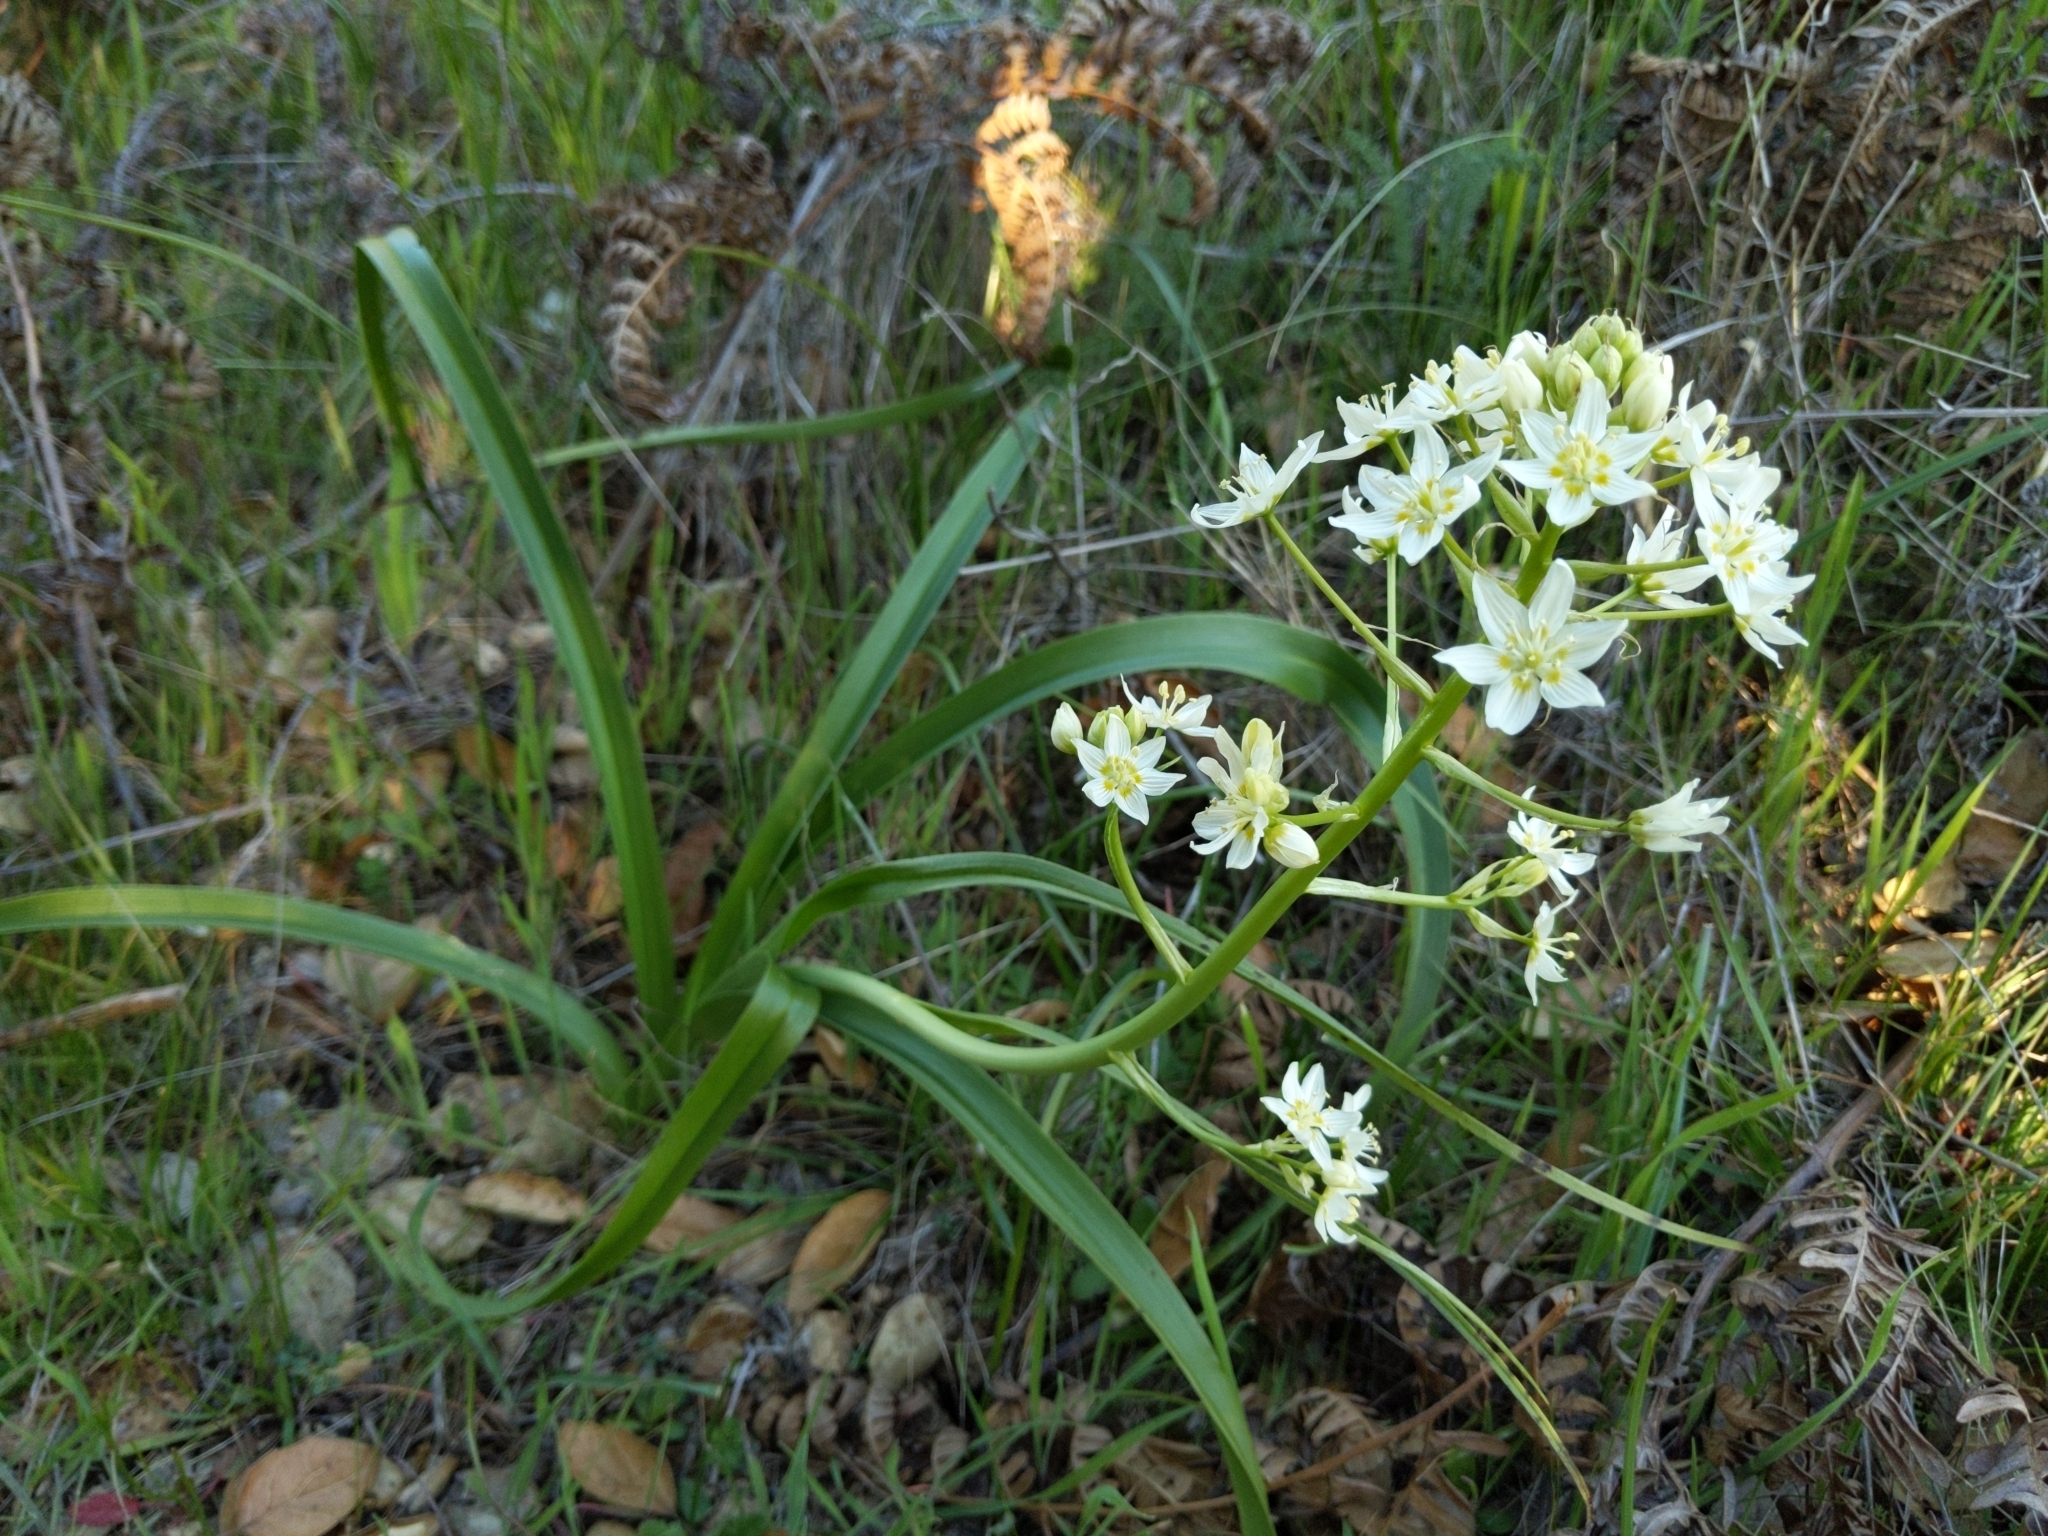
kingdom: Plantae
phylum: Tracheophyta
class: Liliopsida
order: Liliales
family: Melanthiaceae
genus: Toxicoscordion
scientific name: Toxicoscordion fremontii
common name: Fremont's death camas
